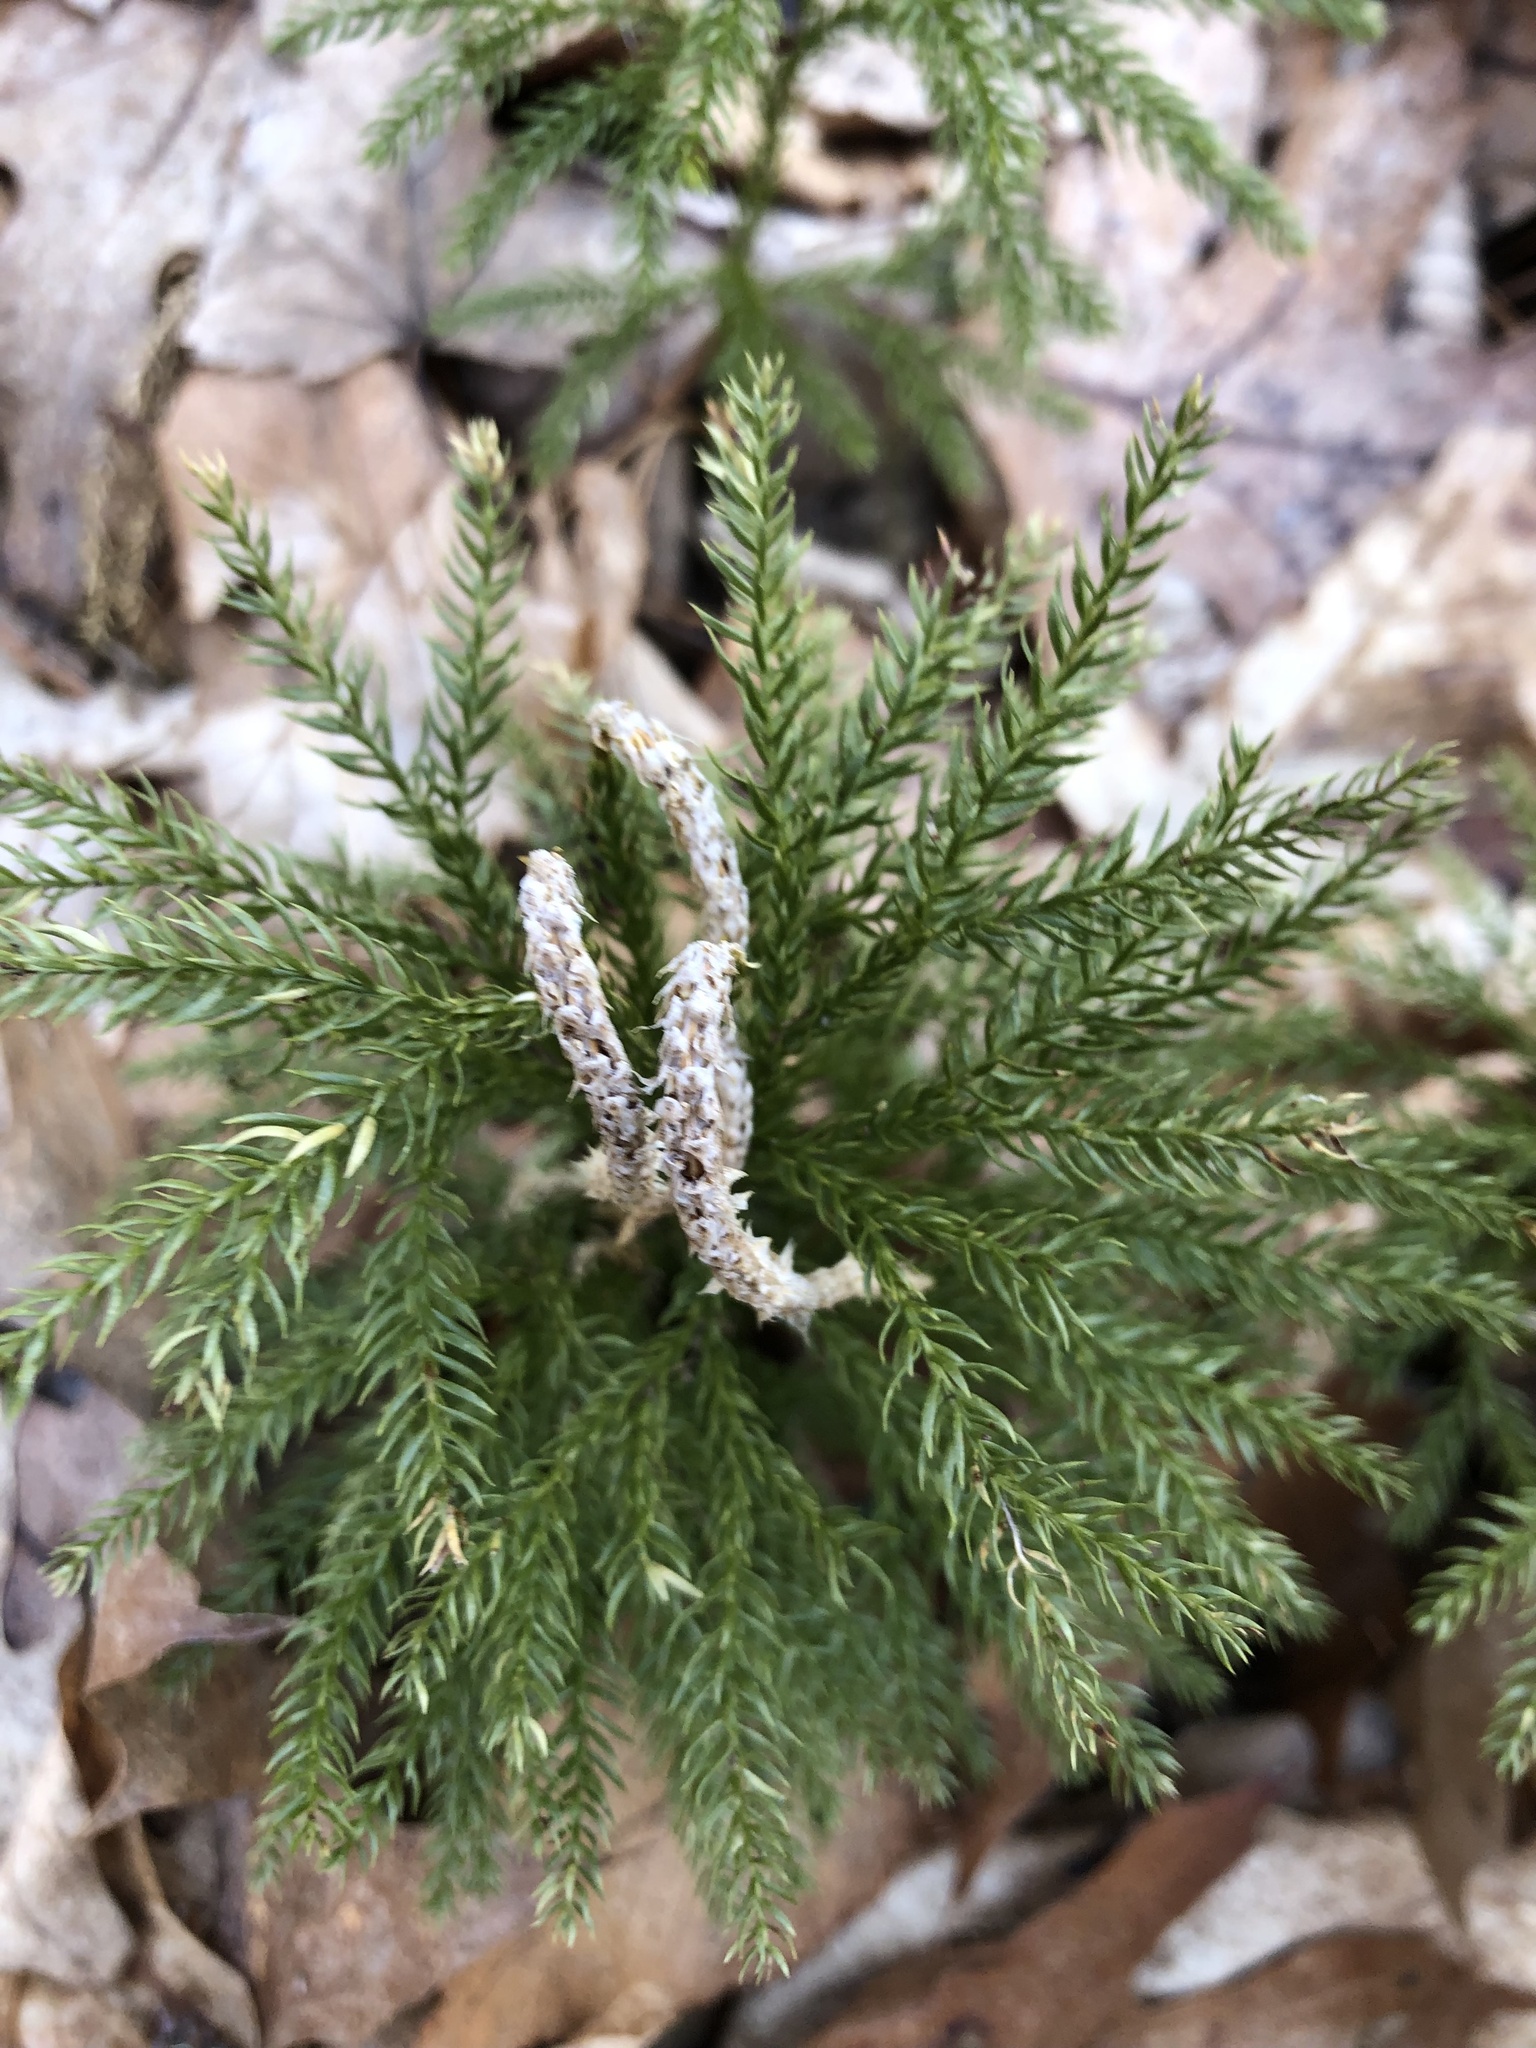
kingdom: Plantae
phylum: Tracheophyta
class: Lycopodiopsida
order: Lycopodiales
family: Lycopodiaceae
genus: Dendrolycopodium
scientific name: Dendrolycopodium hickeyi
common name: Hickey's clubmoss
